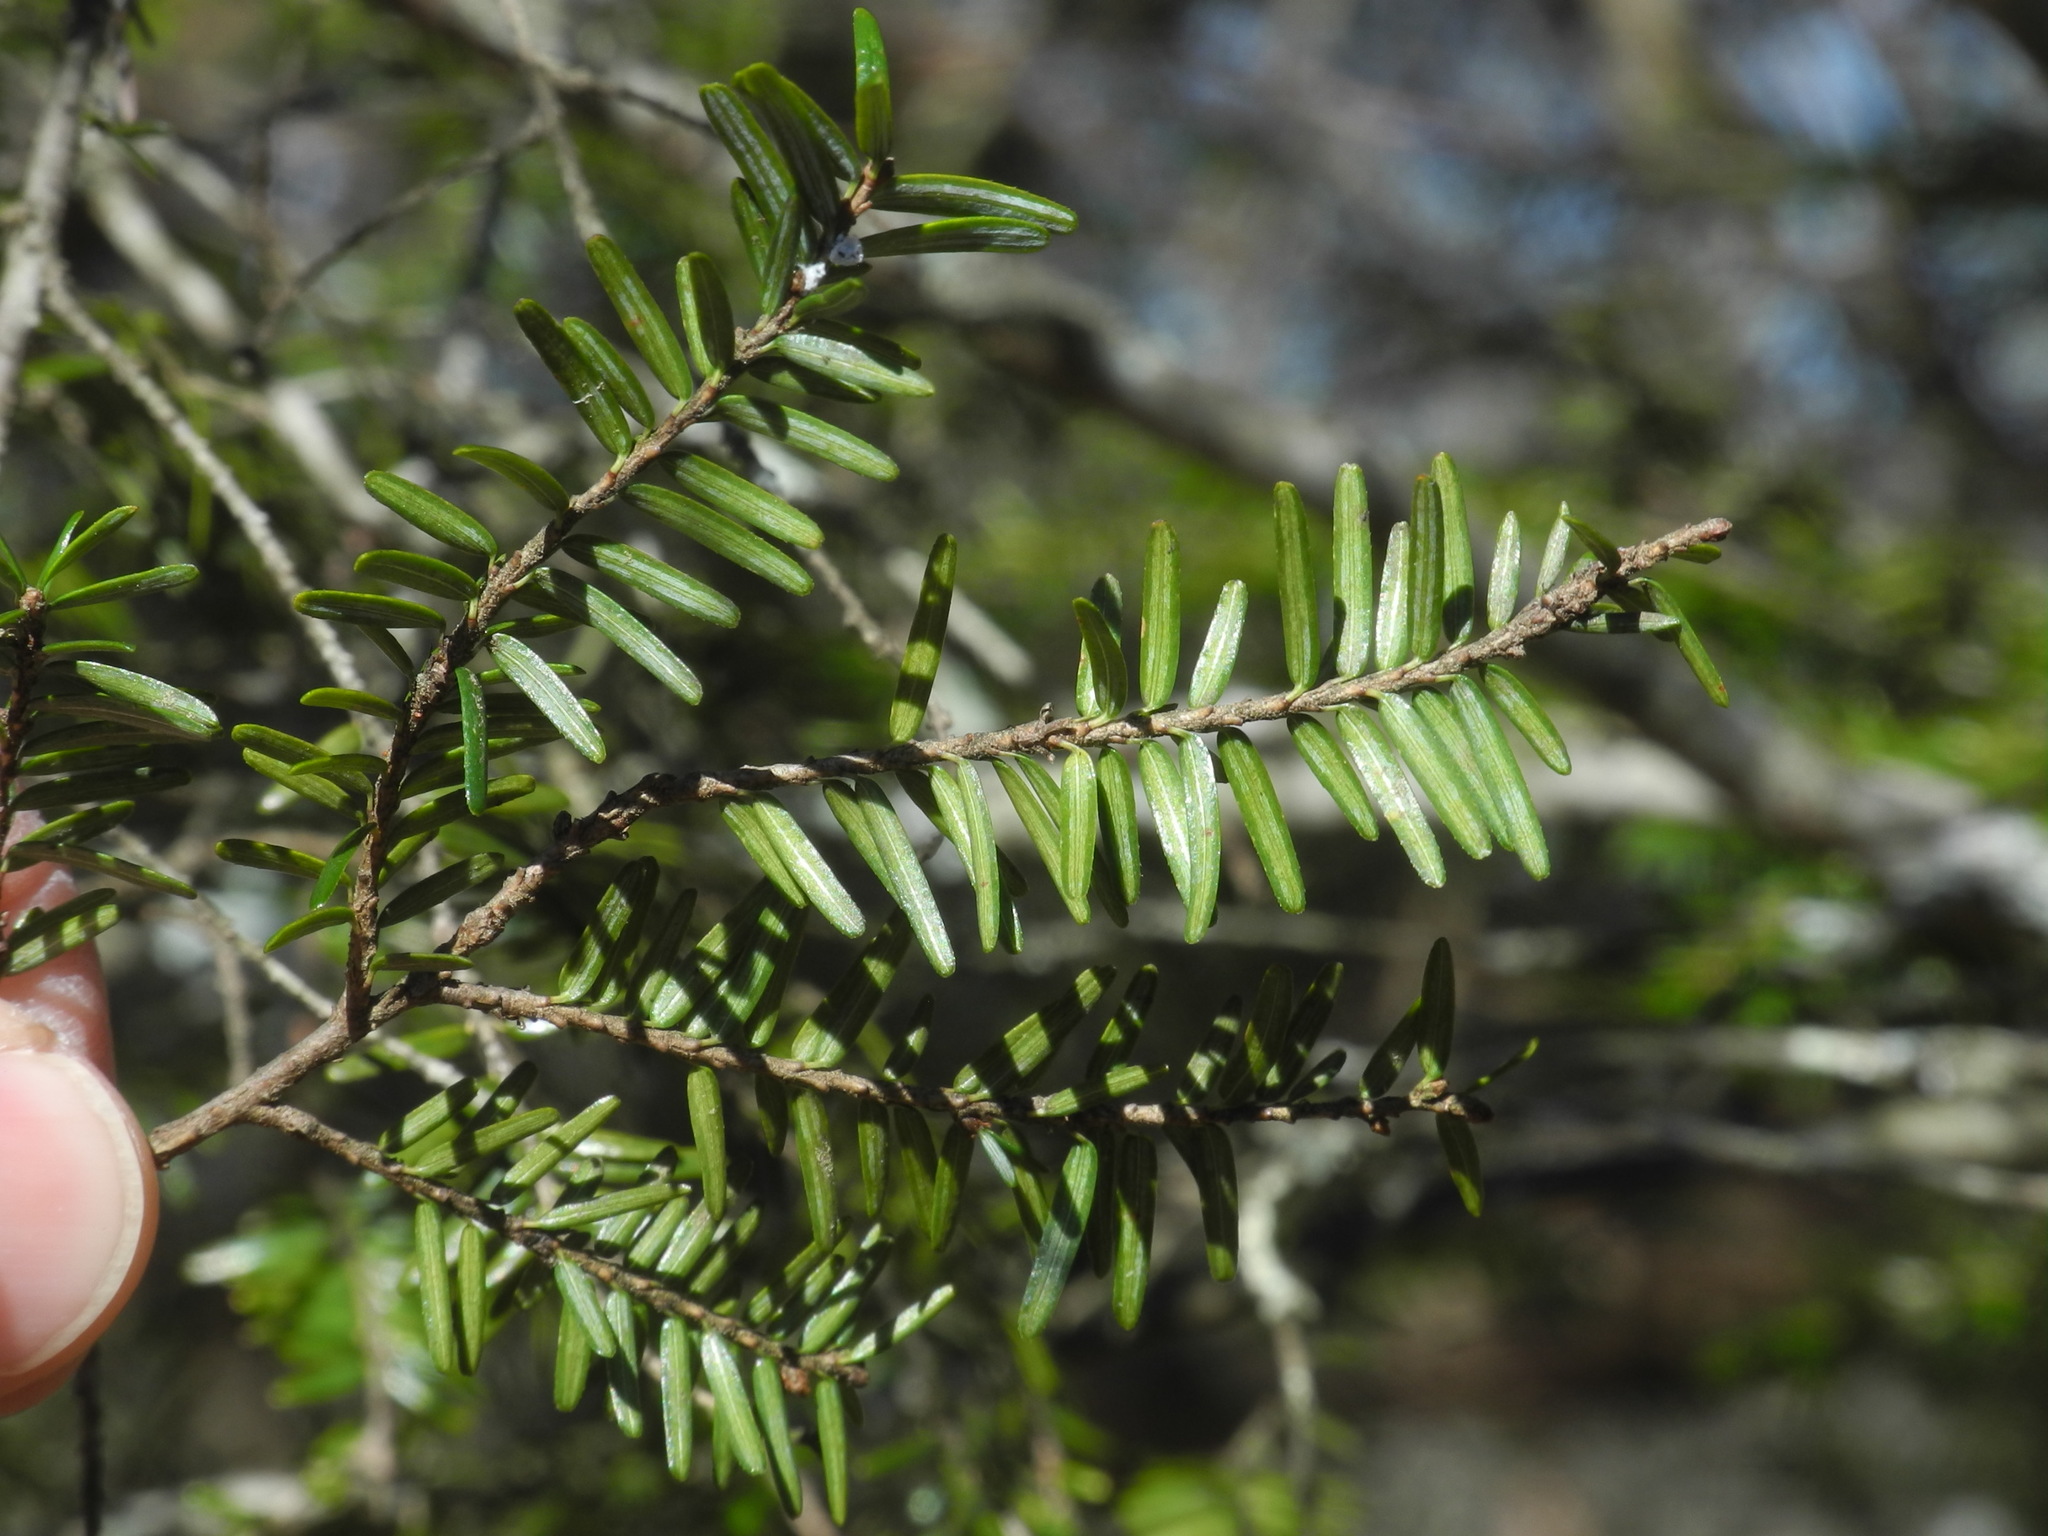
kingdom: Plantae
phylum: Tracheophyta
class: Pinopsida
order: Pinales
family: Pinaceae
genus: Tsuga
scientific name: Tsuga canadensis
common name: Eastern hemlock
